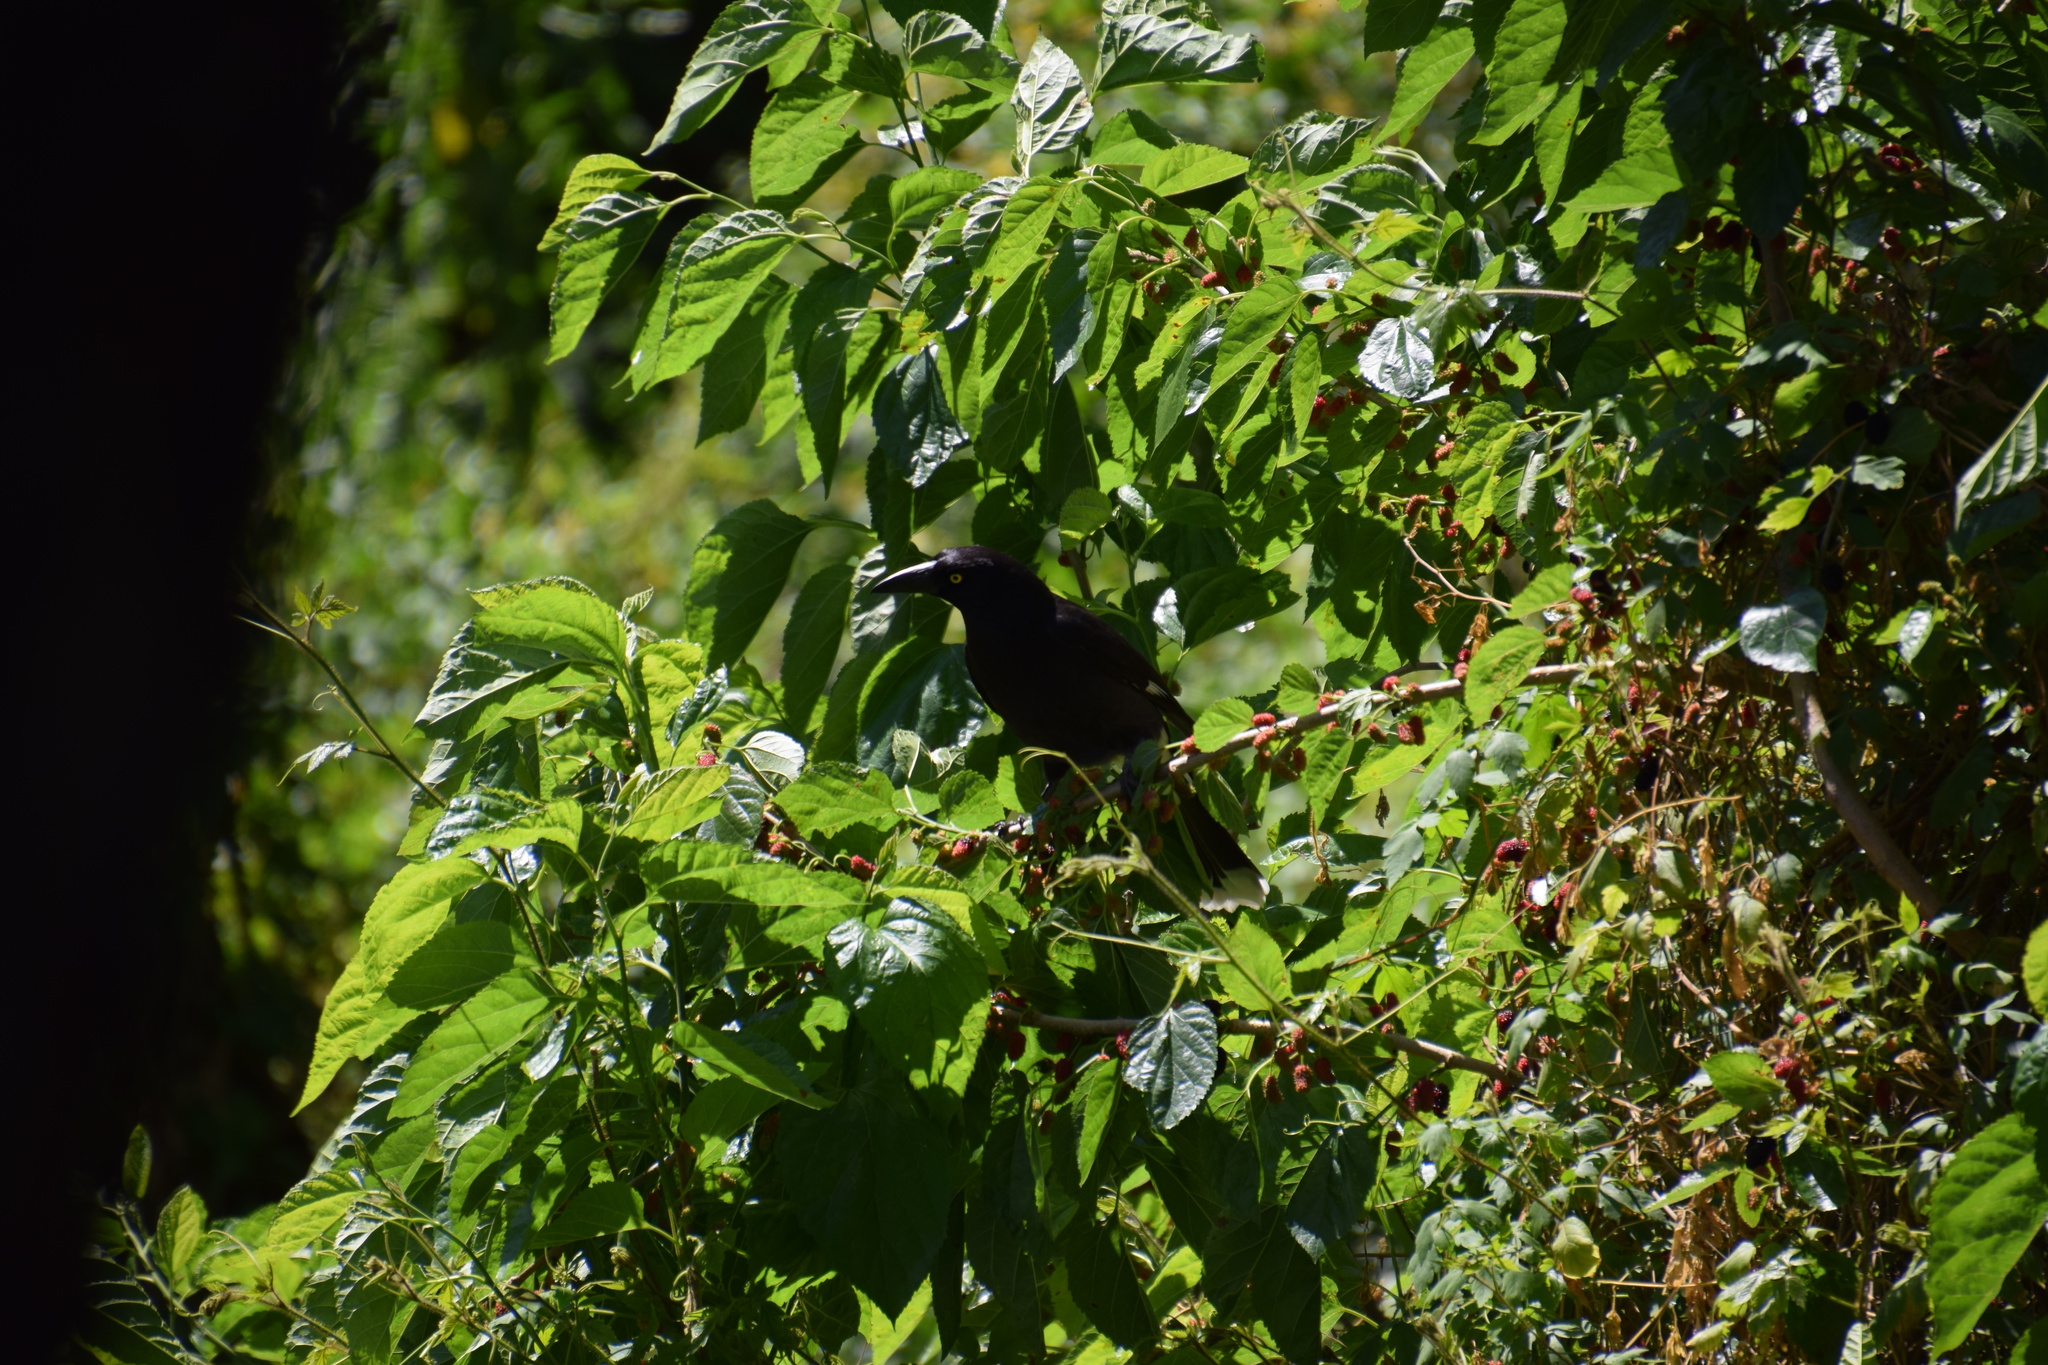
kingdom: Animalia
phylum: Chordata
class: Aves
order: Passeriformes
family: Cracticidae
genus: Strepera
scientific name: Strepera graculina
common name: Pied currawong
